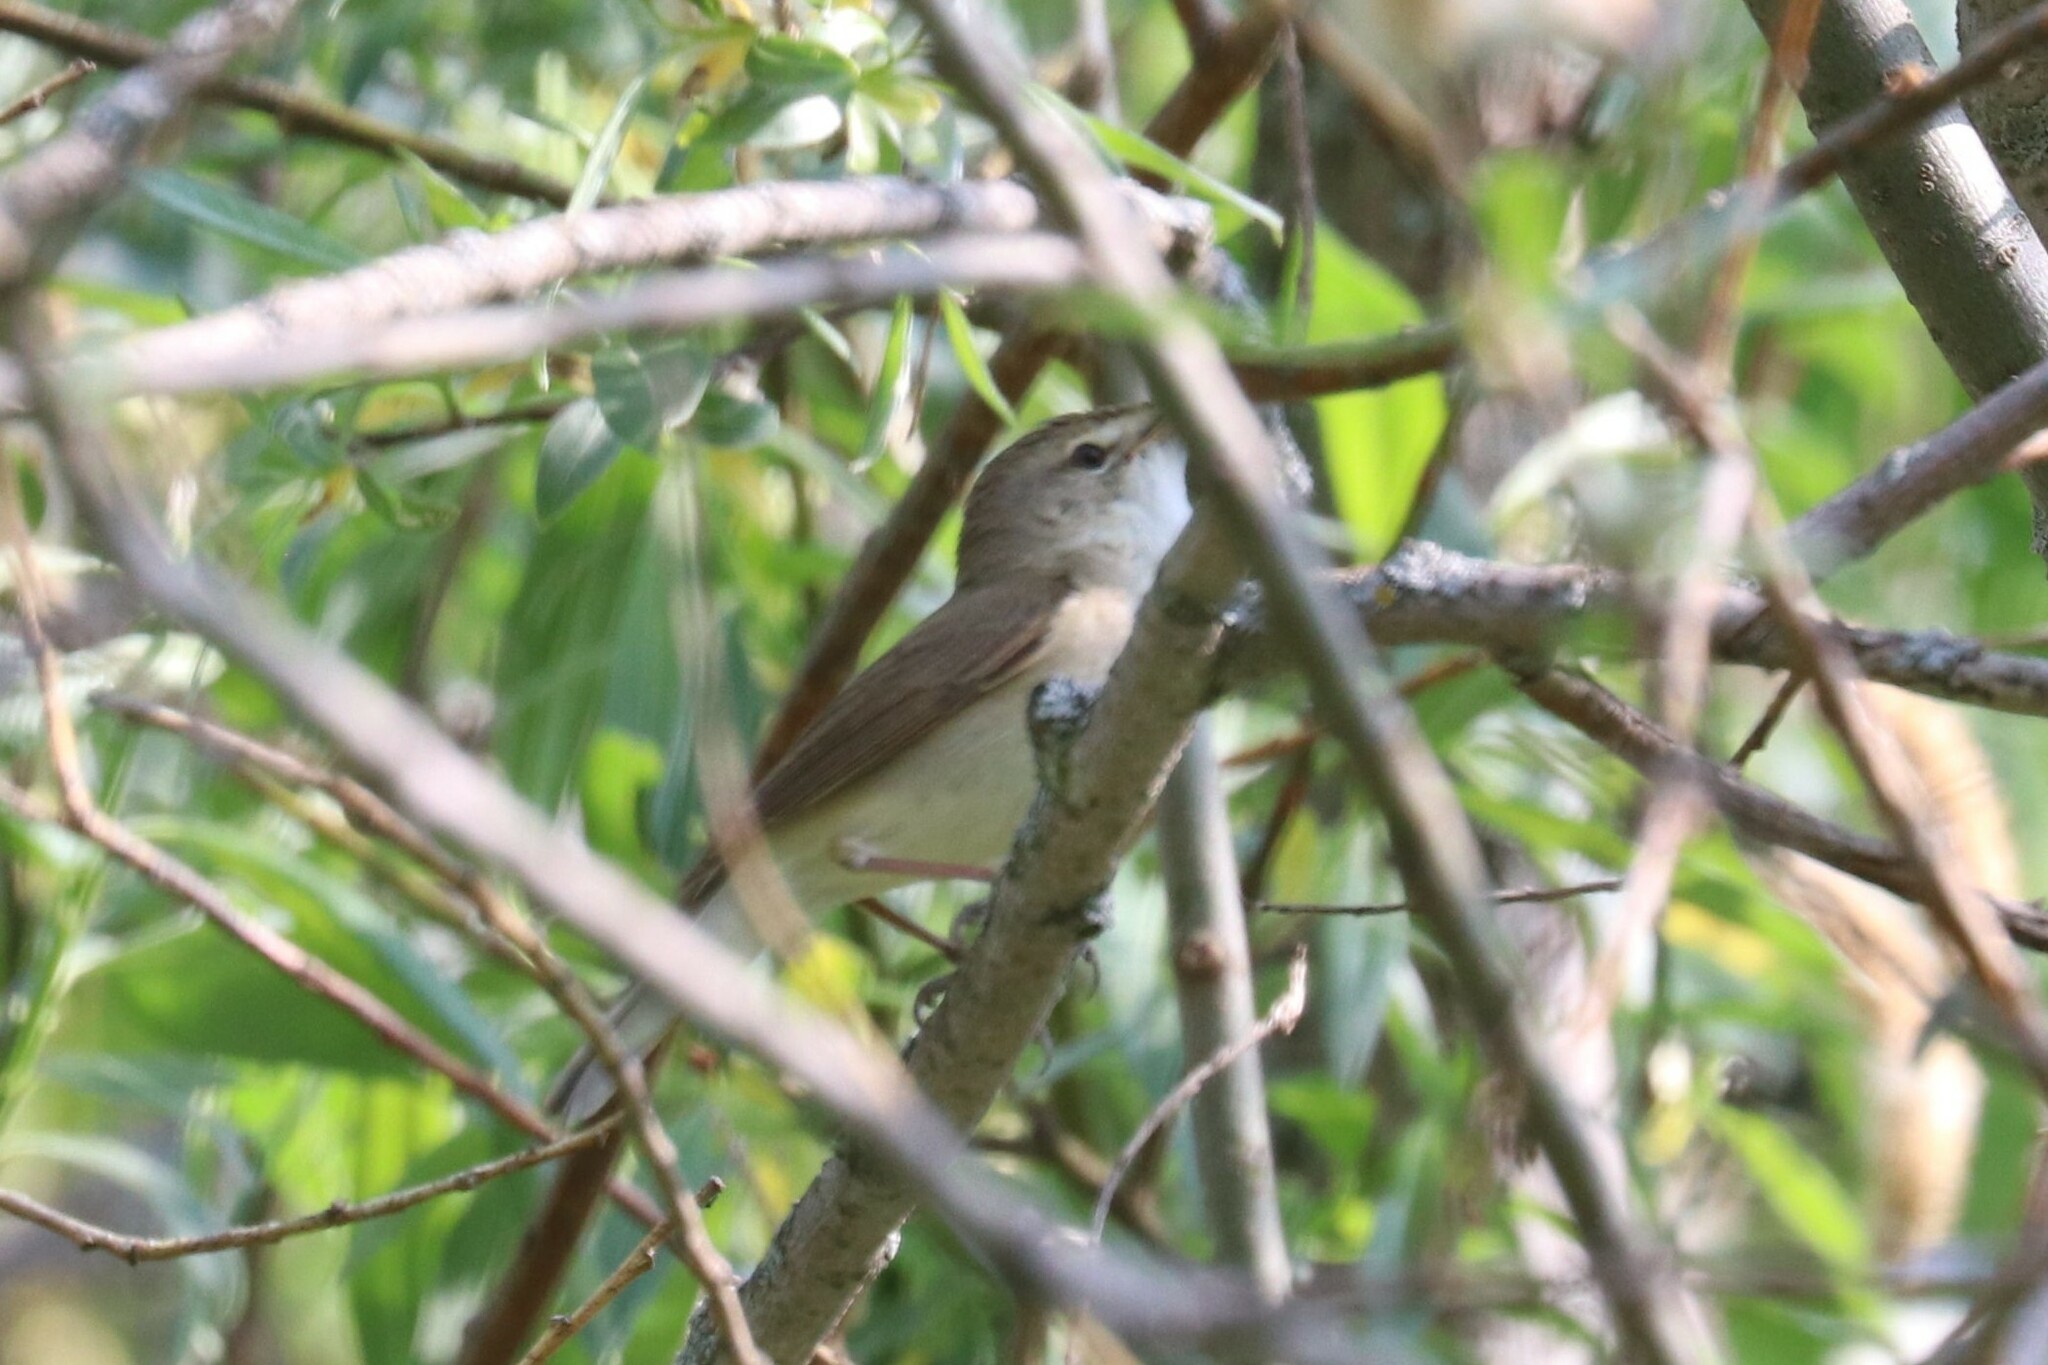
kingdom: Animalia
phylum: Chordata
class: Aves
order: Passeriformes
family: Acrocephalidae
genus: Acrocephalus
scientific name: Acrocephalus dumetorum
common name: Blyth's reed warbler
